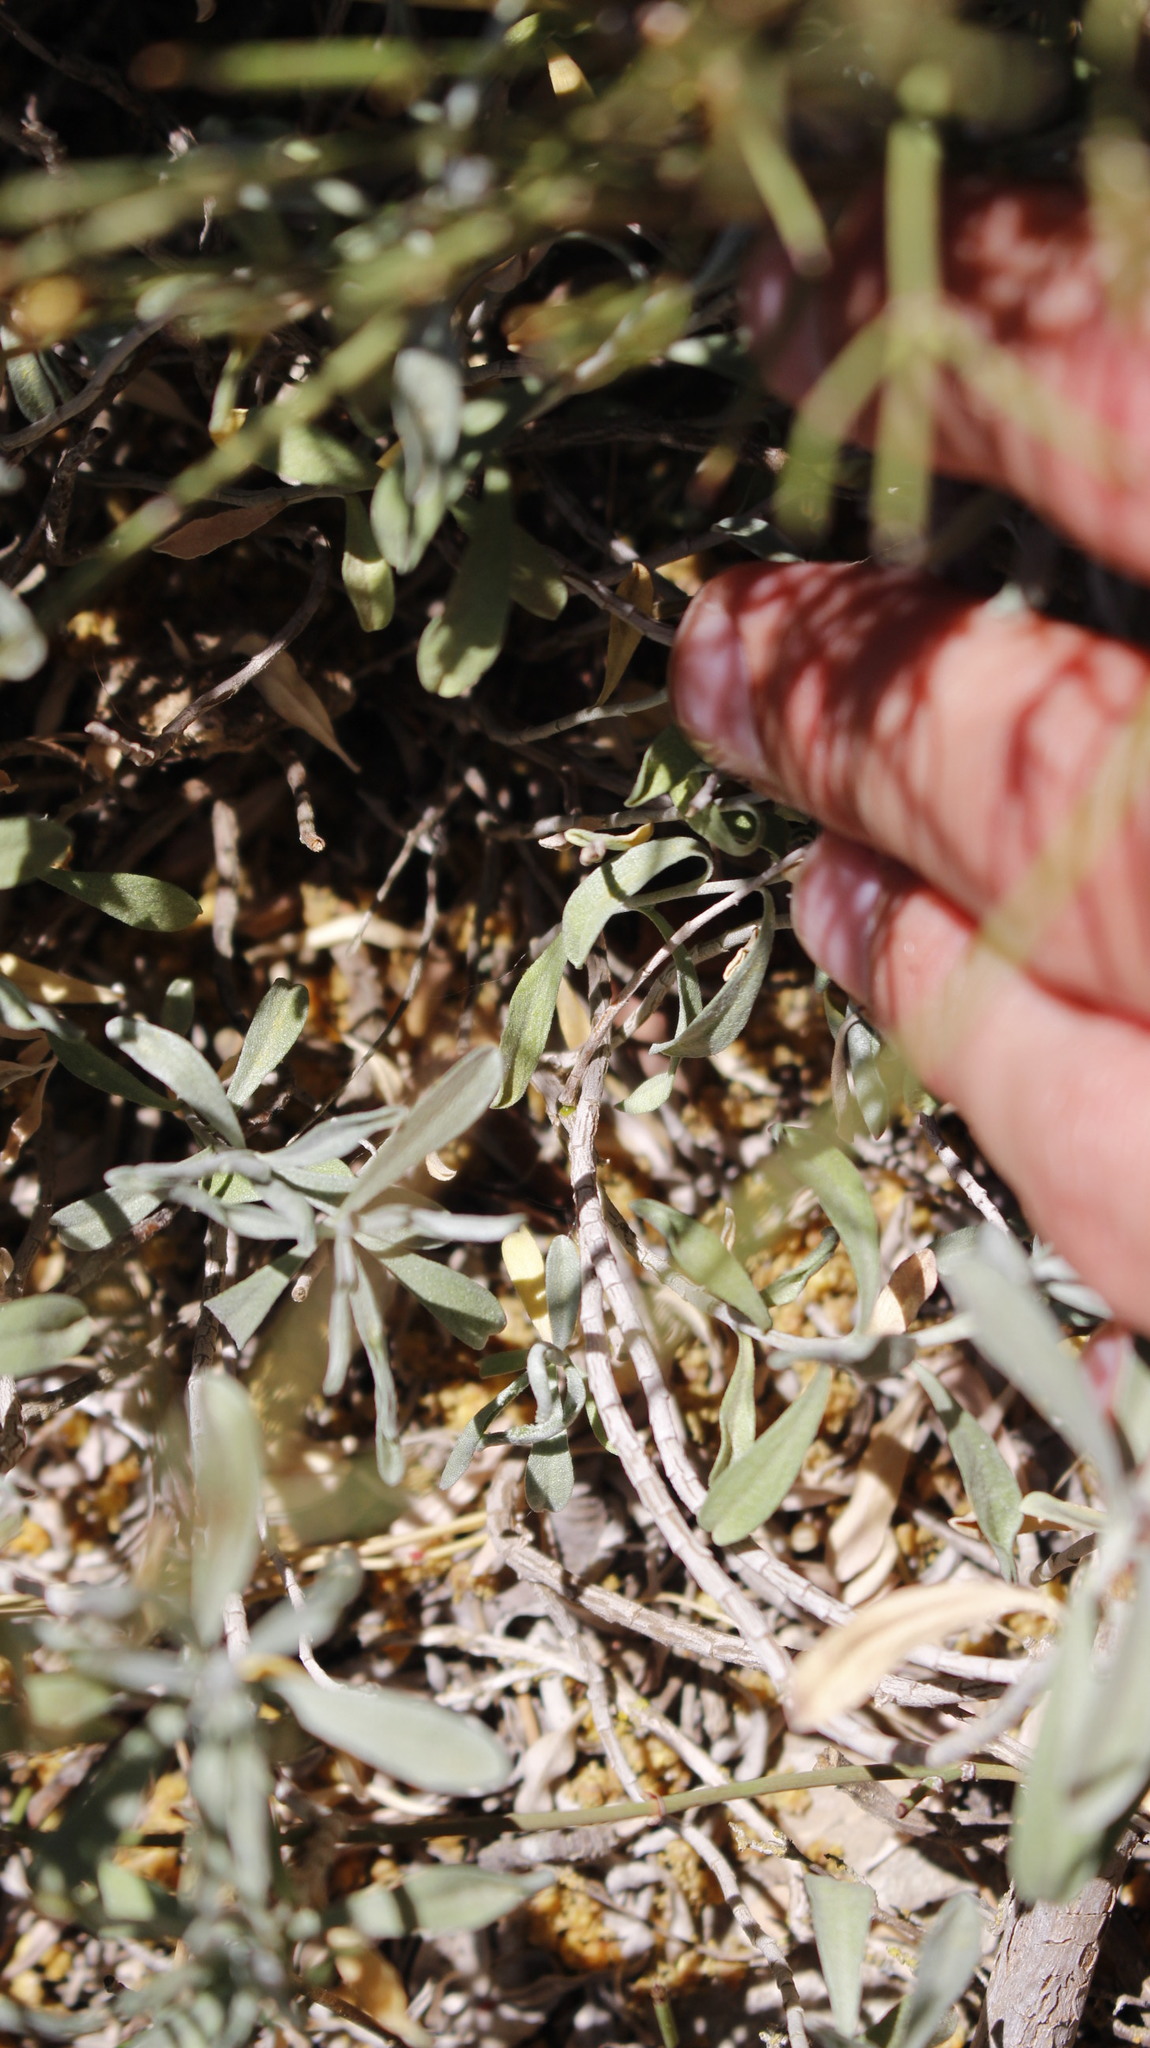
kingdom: Plantae
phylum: Tracheophyta
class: Magnoliopsida
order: Brassicales
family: Brassicaceae
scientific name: Brassicaceae
